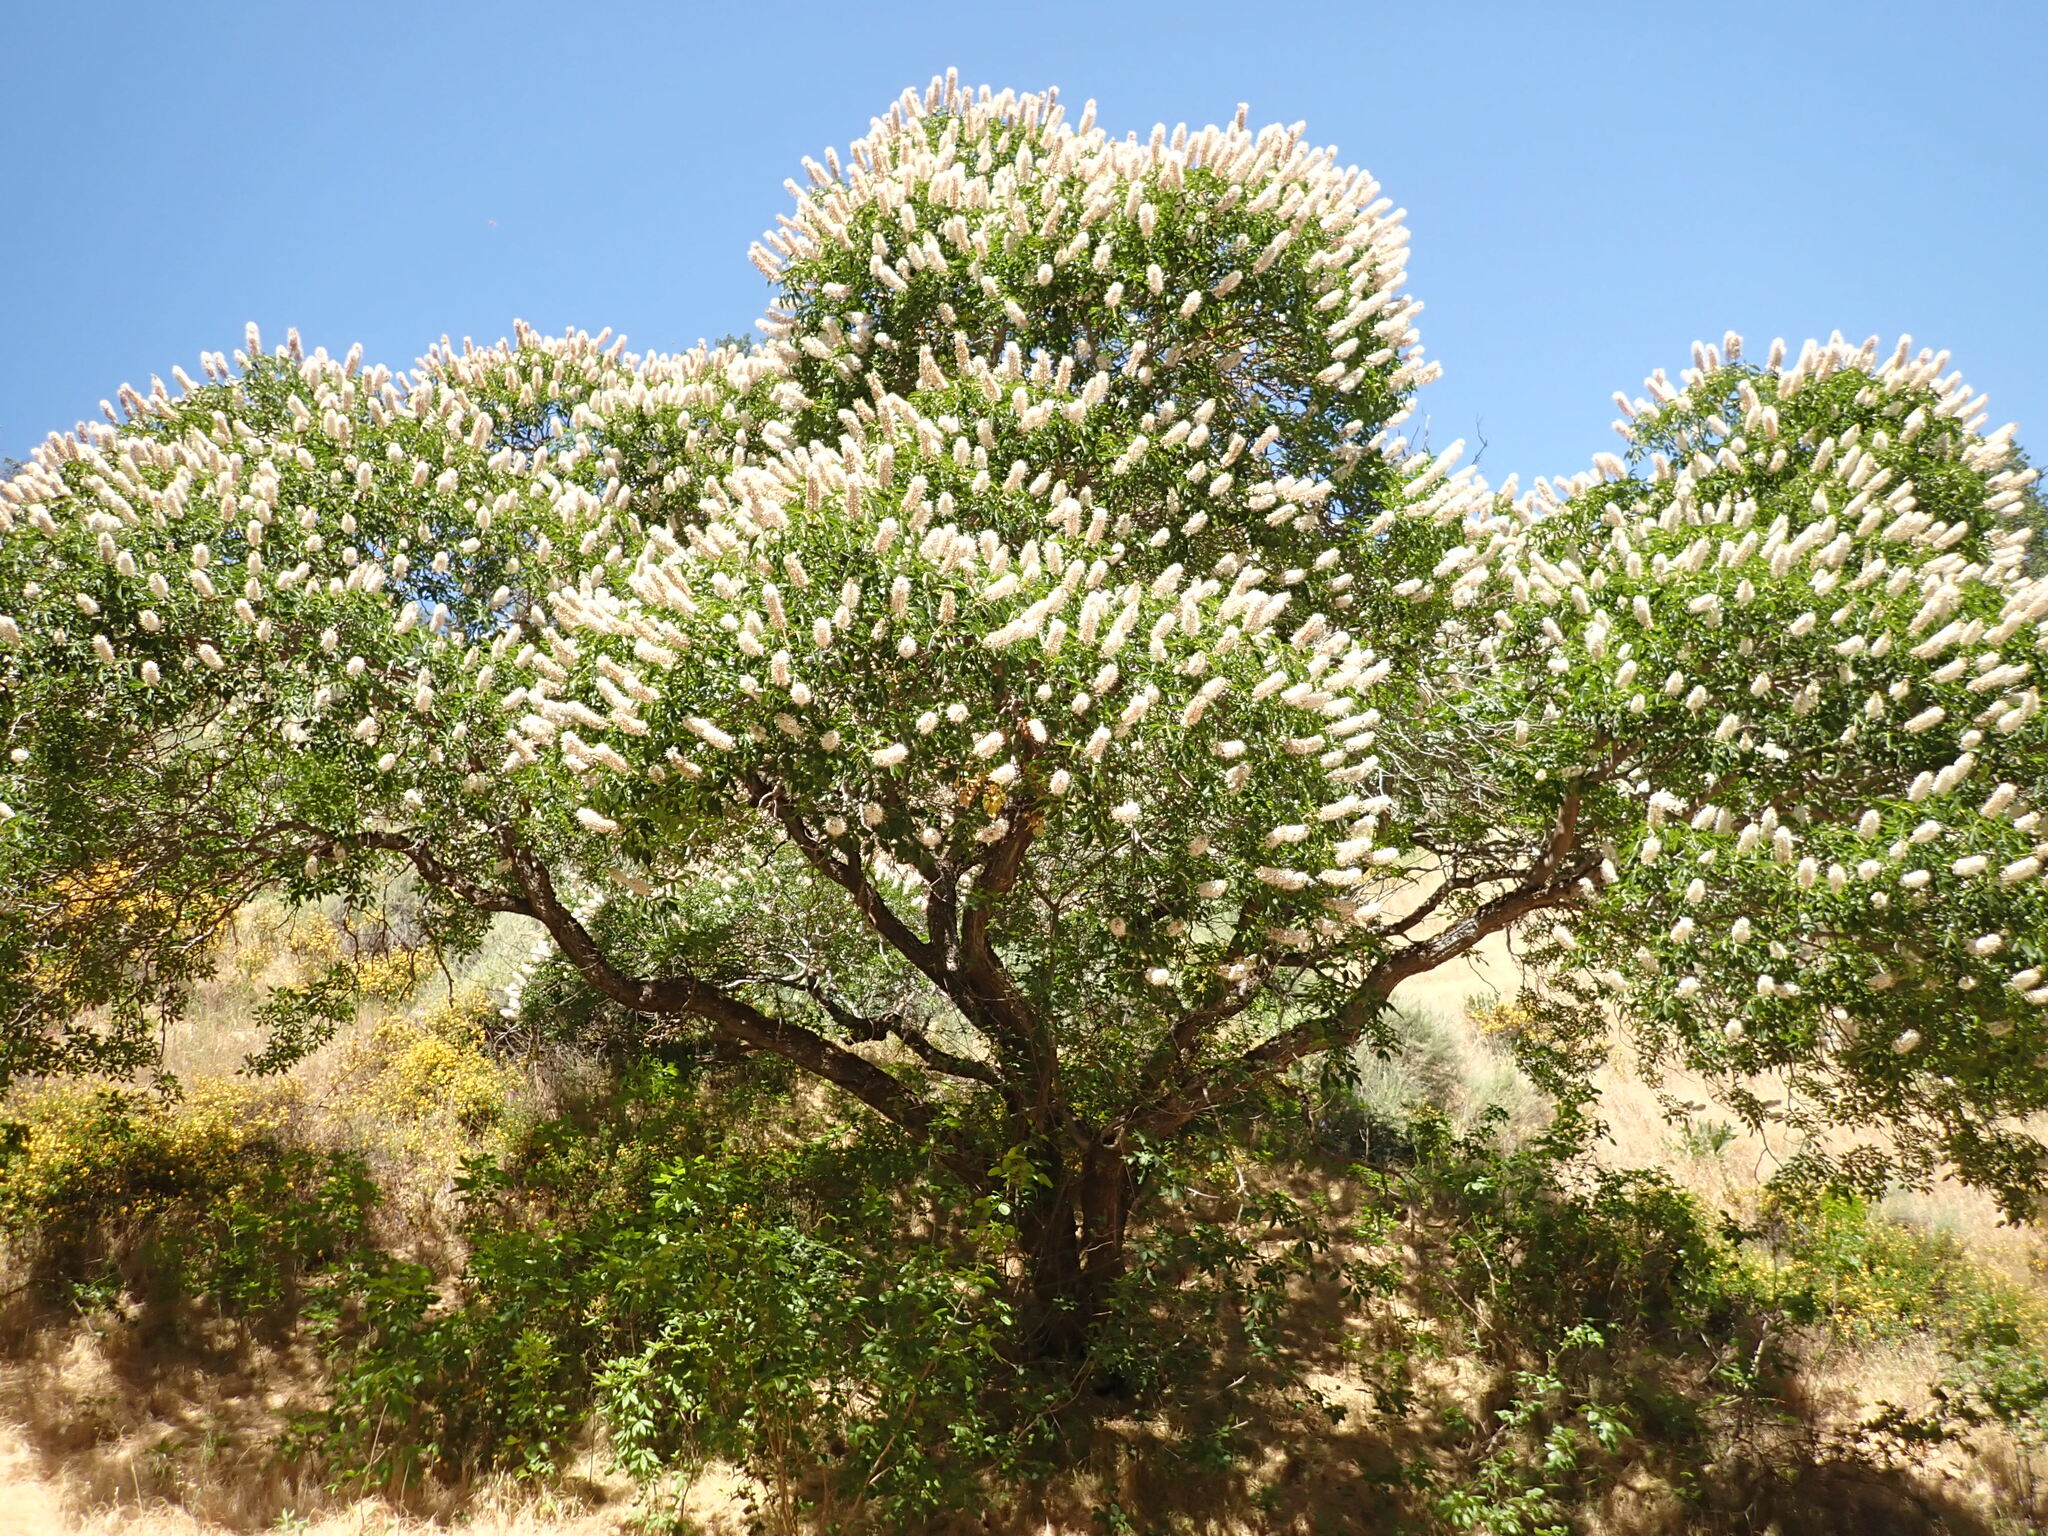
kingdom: Plantae
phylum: Tracheophyta
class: Magnoliopsida
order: Sapindales
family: Sapindaceae
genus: Aesculus
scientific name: Aesculus californica
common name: California buckeye
